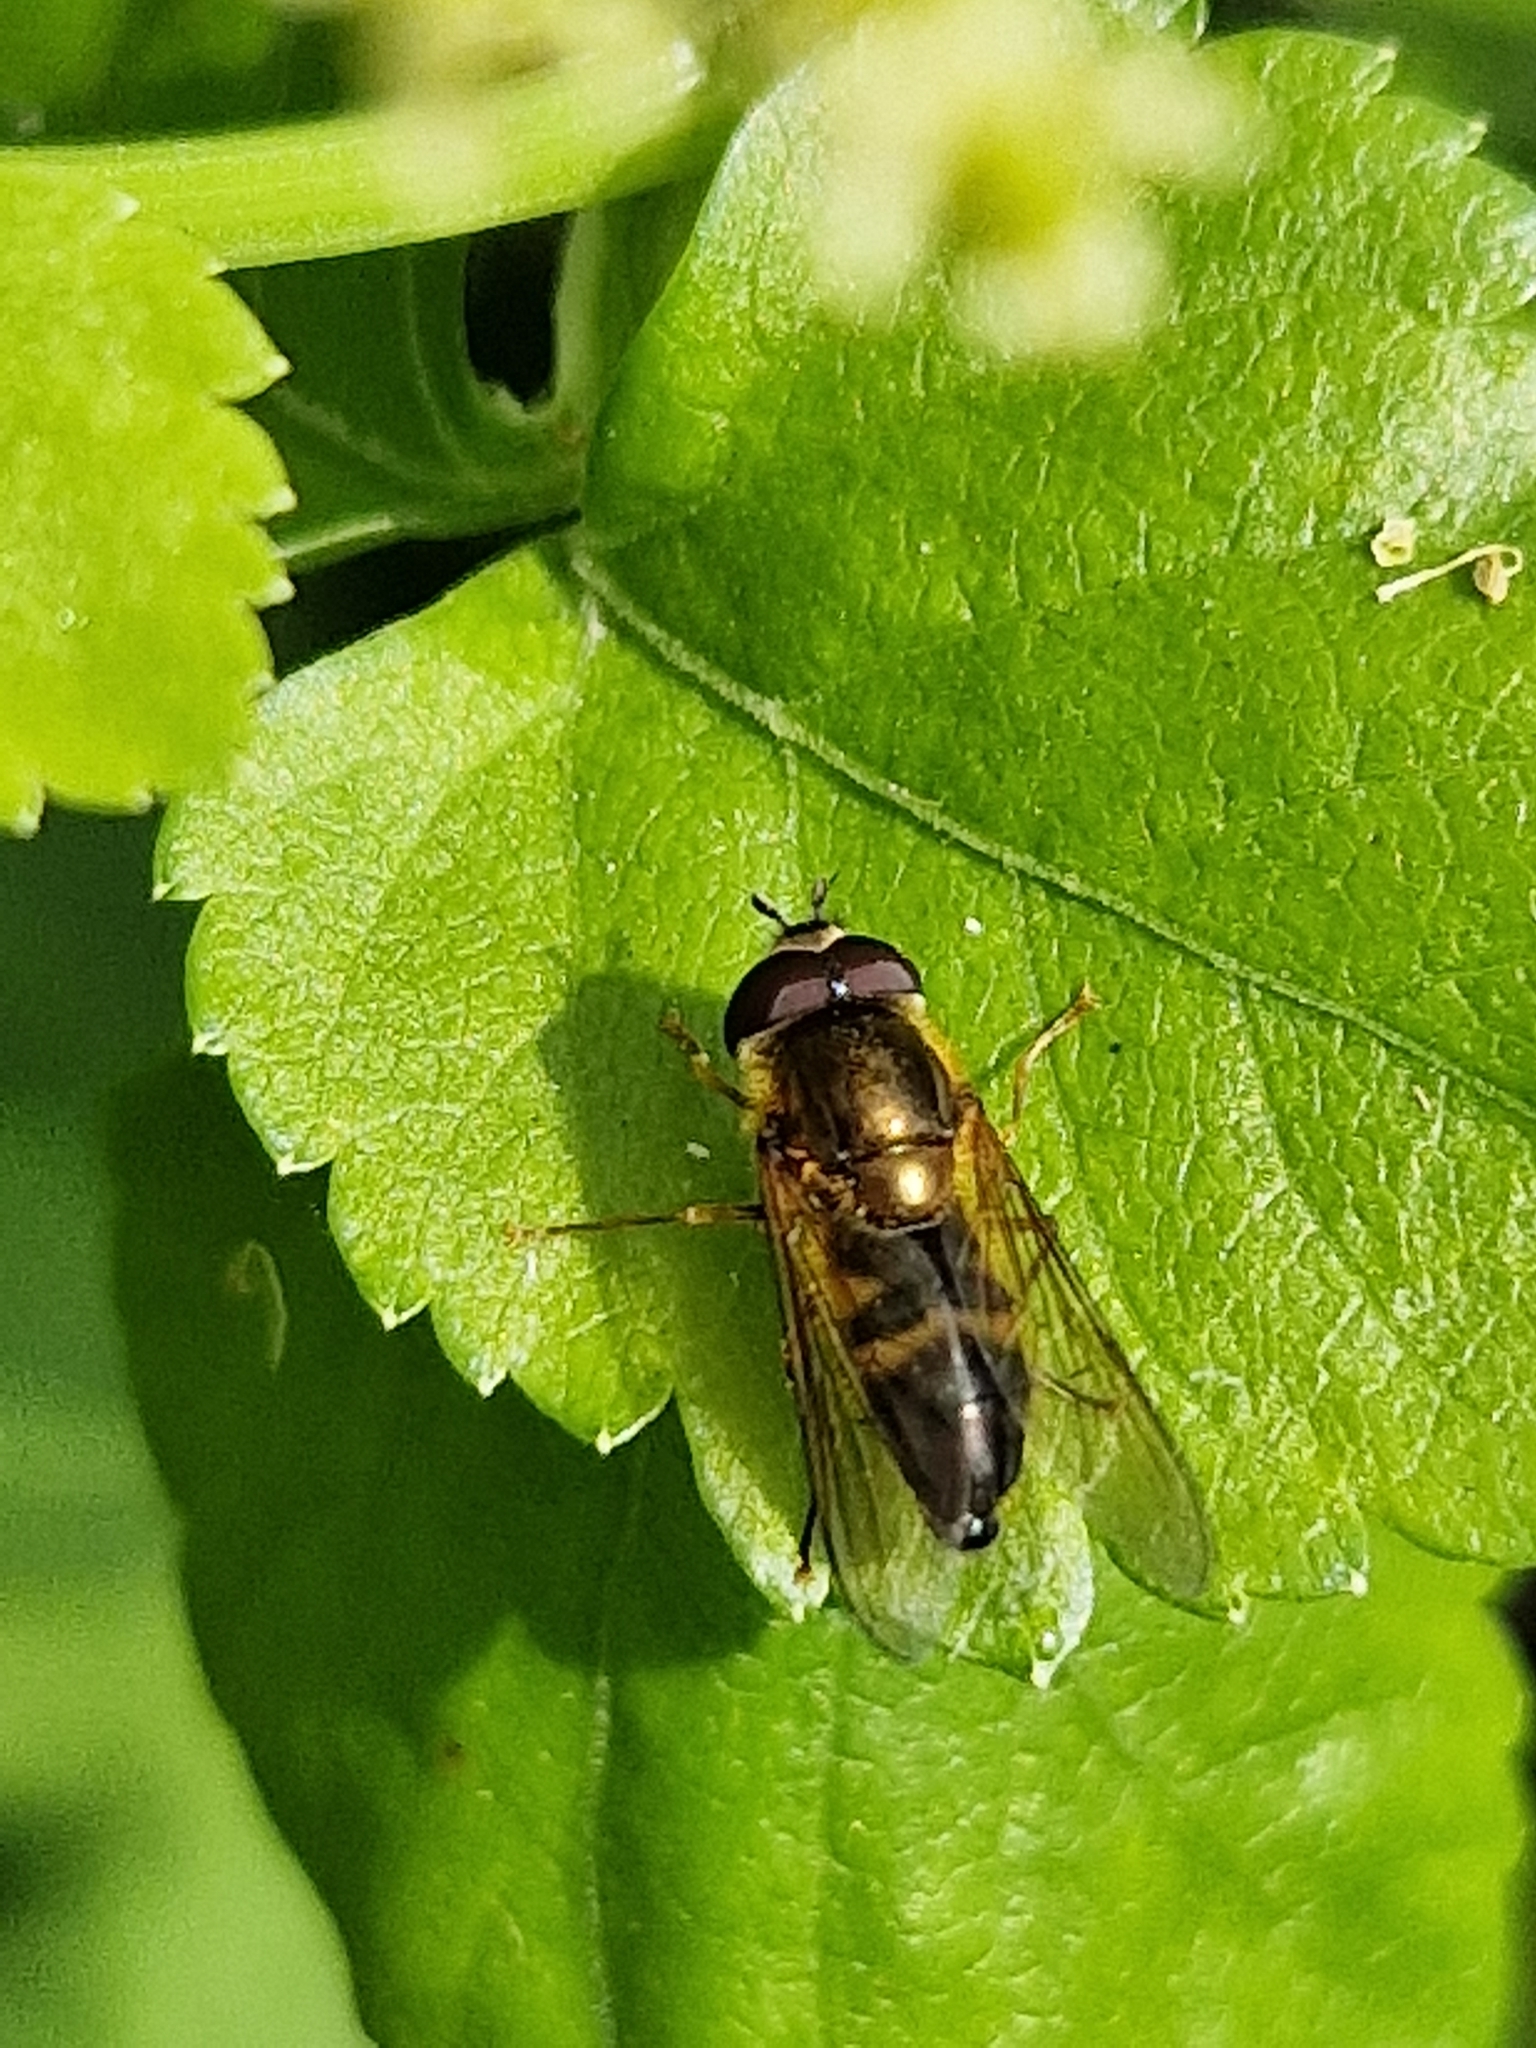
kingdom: Animalia
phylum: Arthropoda
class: Insecta
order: Diptera
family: Syrphidae
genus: Epistrophe
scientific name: Epistrophe eligans
